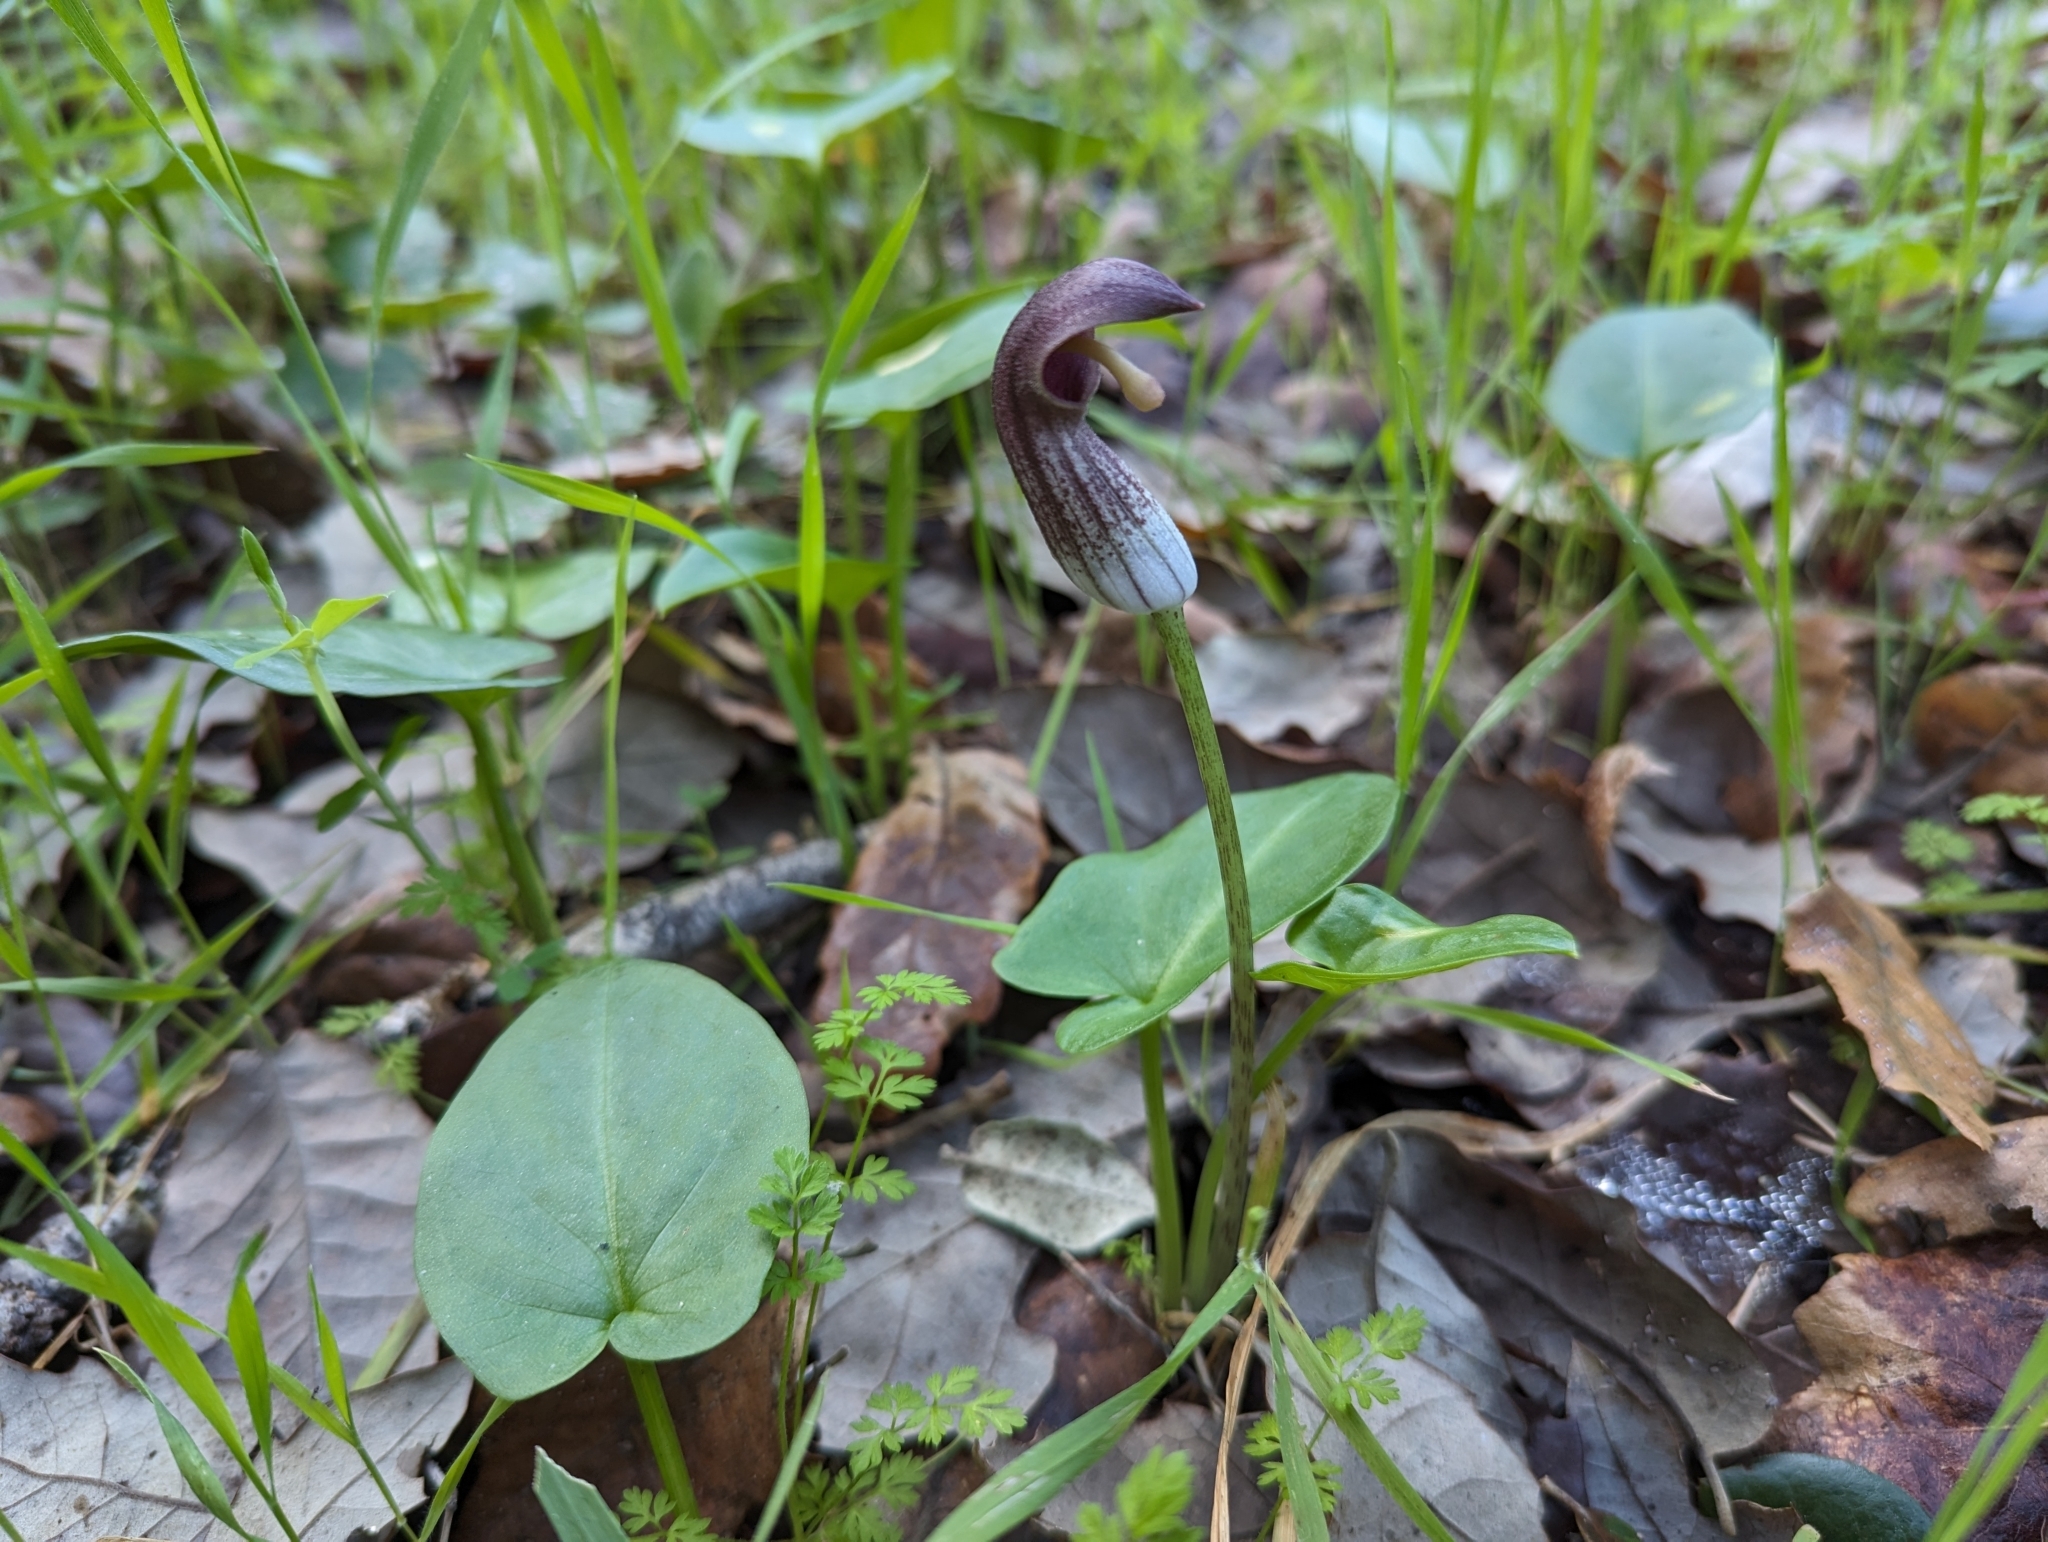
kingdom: Plantae
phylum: Tracheophyta
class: Liliopsida
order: Alismatales
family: Araceae
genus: Arisarum
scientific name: Arisarum simorrhinum
